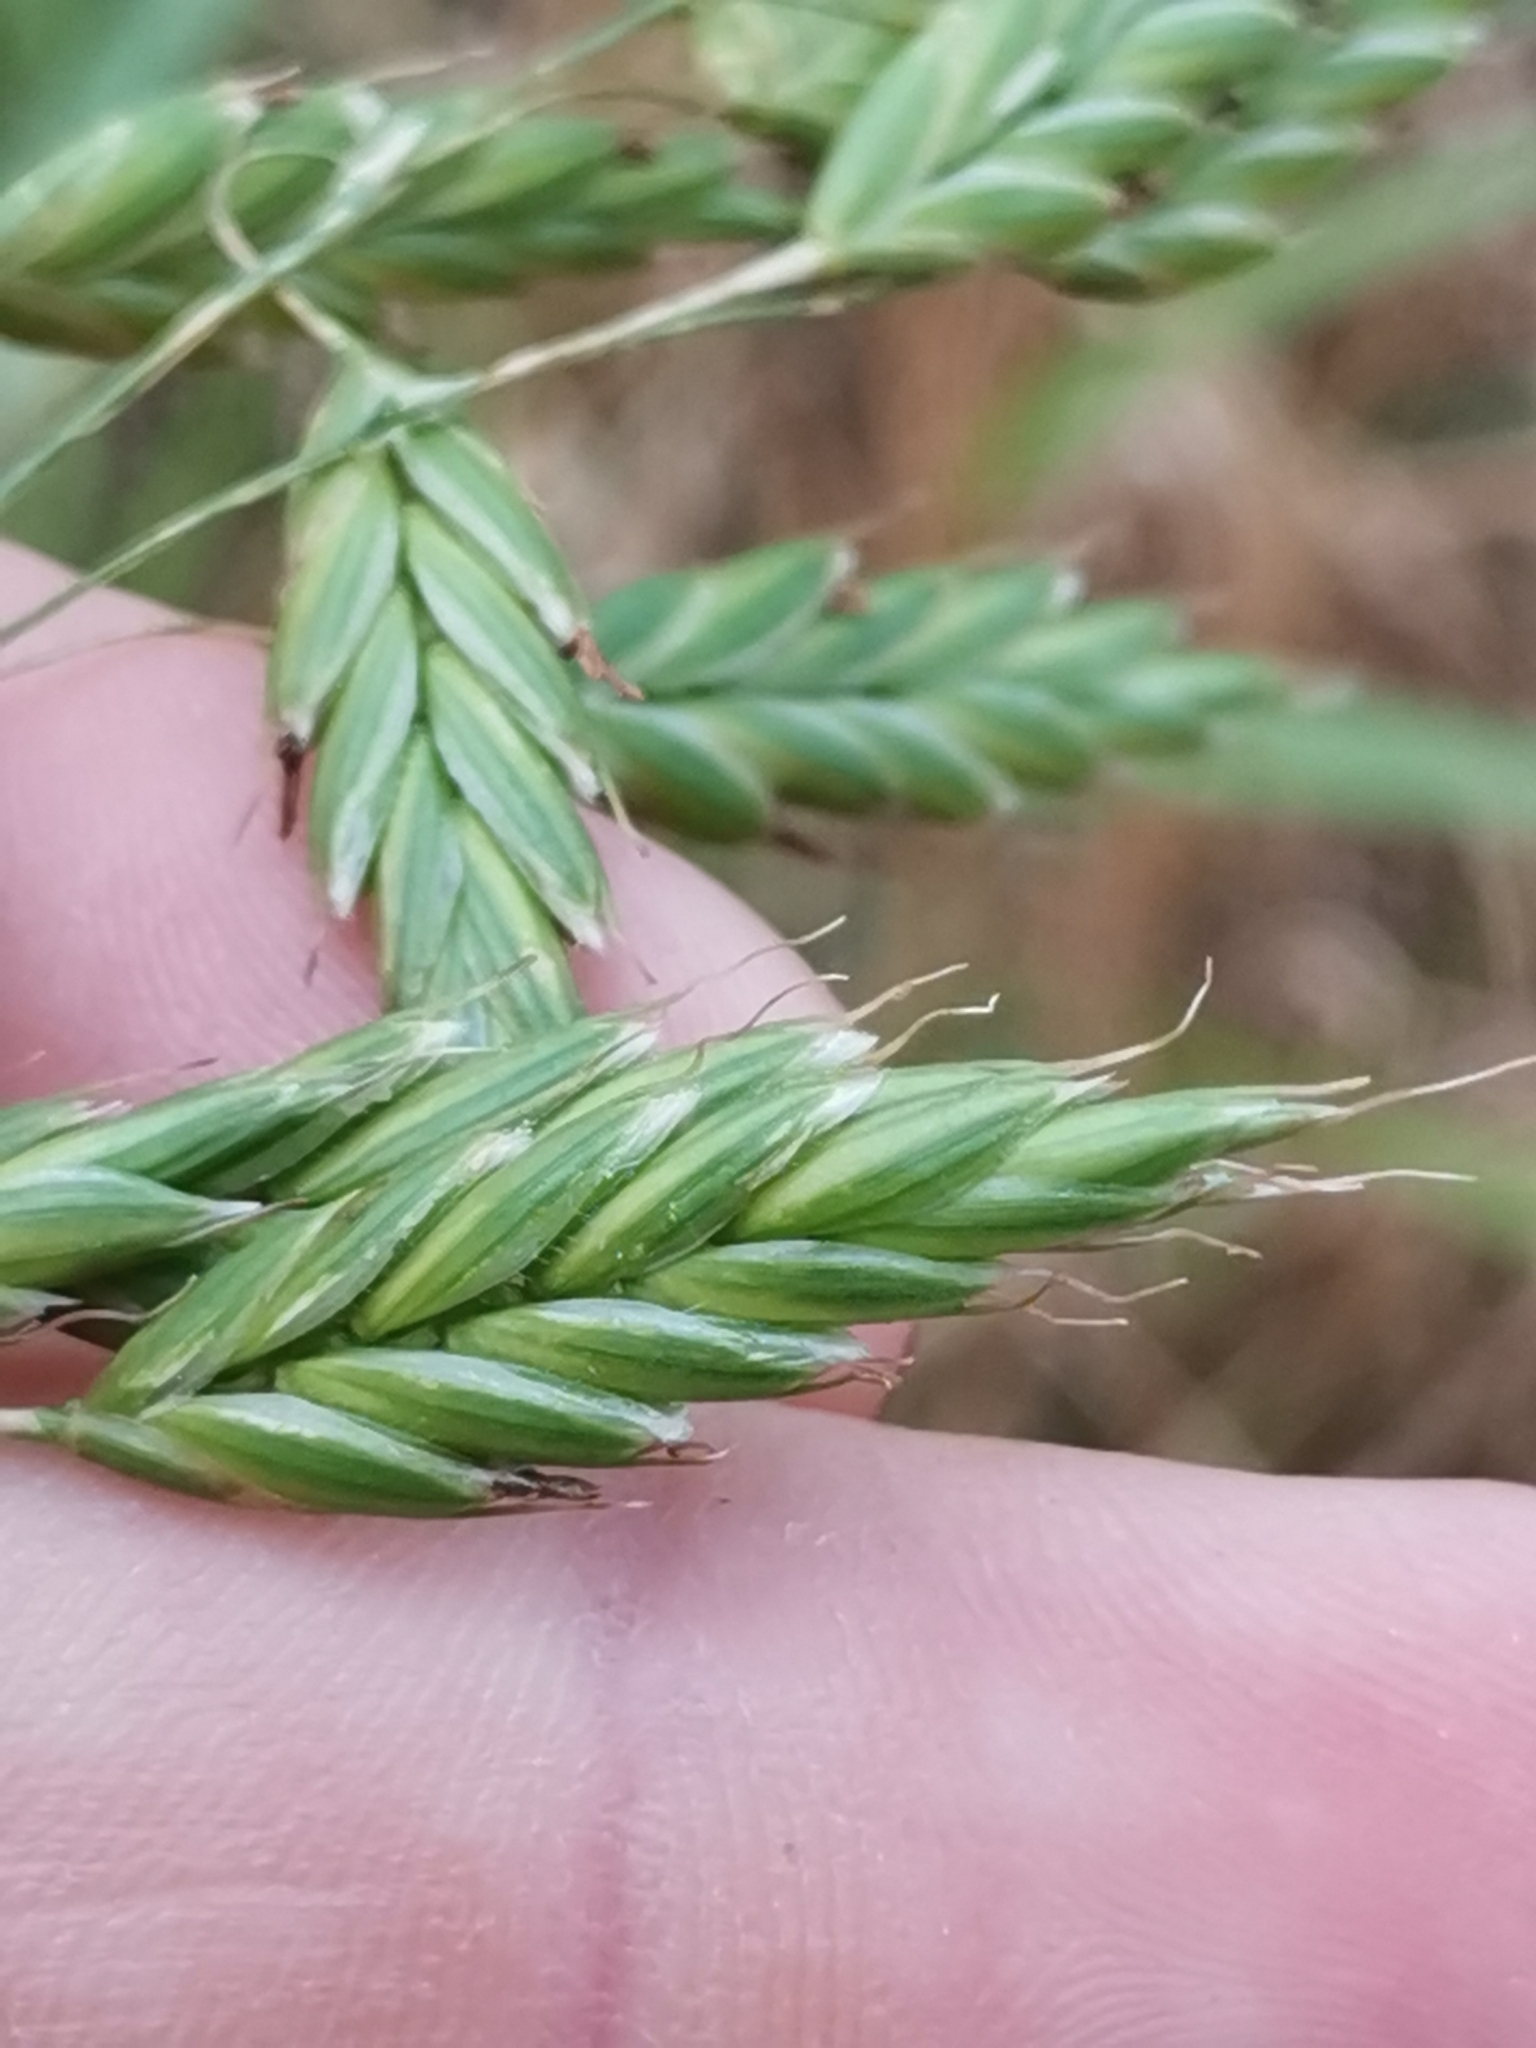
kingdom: Plantae
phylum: Tracheophyta
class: Liliopsida
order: Poales
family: Poaceae
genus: Bromus
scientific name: Bromus secalinus
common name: Rye brome
